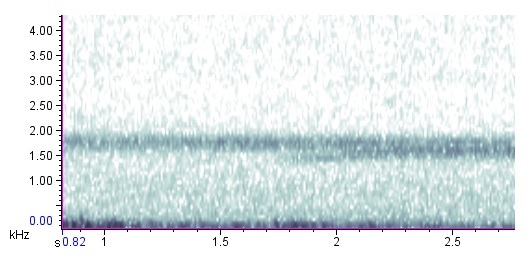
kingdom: Animalia
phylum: Chordata
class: Amphibia
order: Anura
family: Bufonidae
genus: Anaxyrus
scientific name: Anaxyrus americanus
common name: American toad
